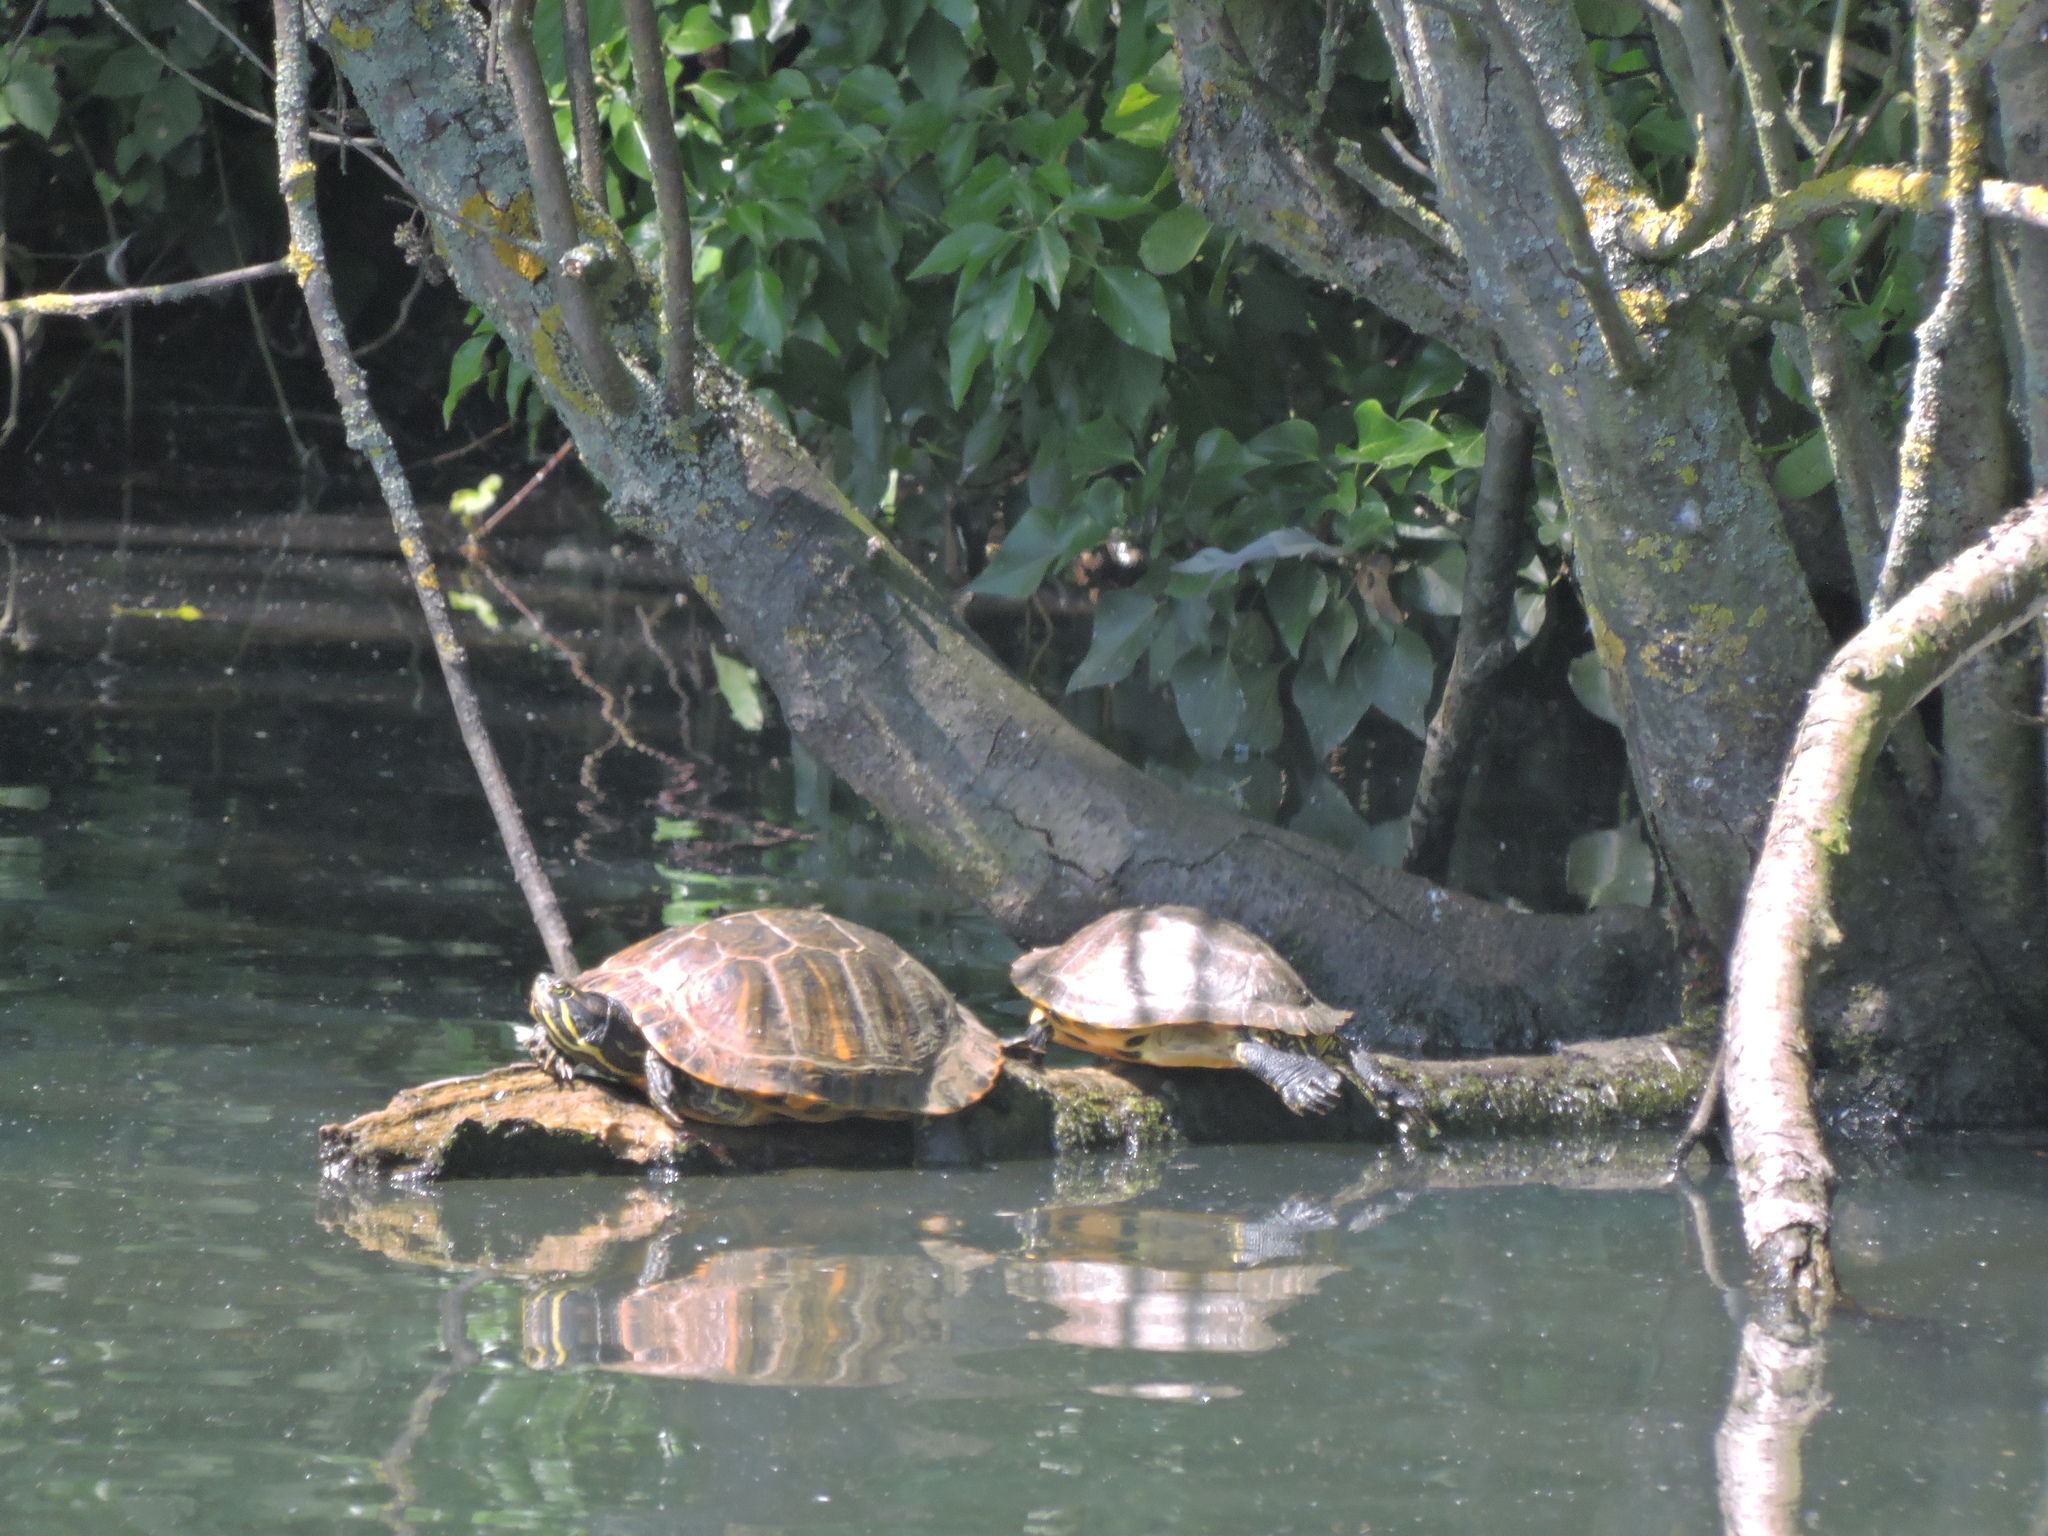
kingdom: Animalia
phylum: Chordata
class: Testudines
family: Emydidae
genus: Trachemys
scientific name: Trachemys scripta
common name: Slider
